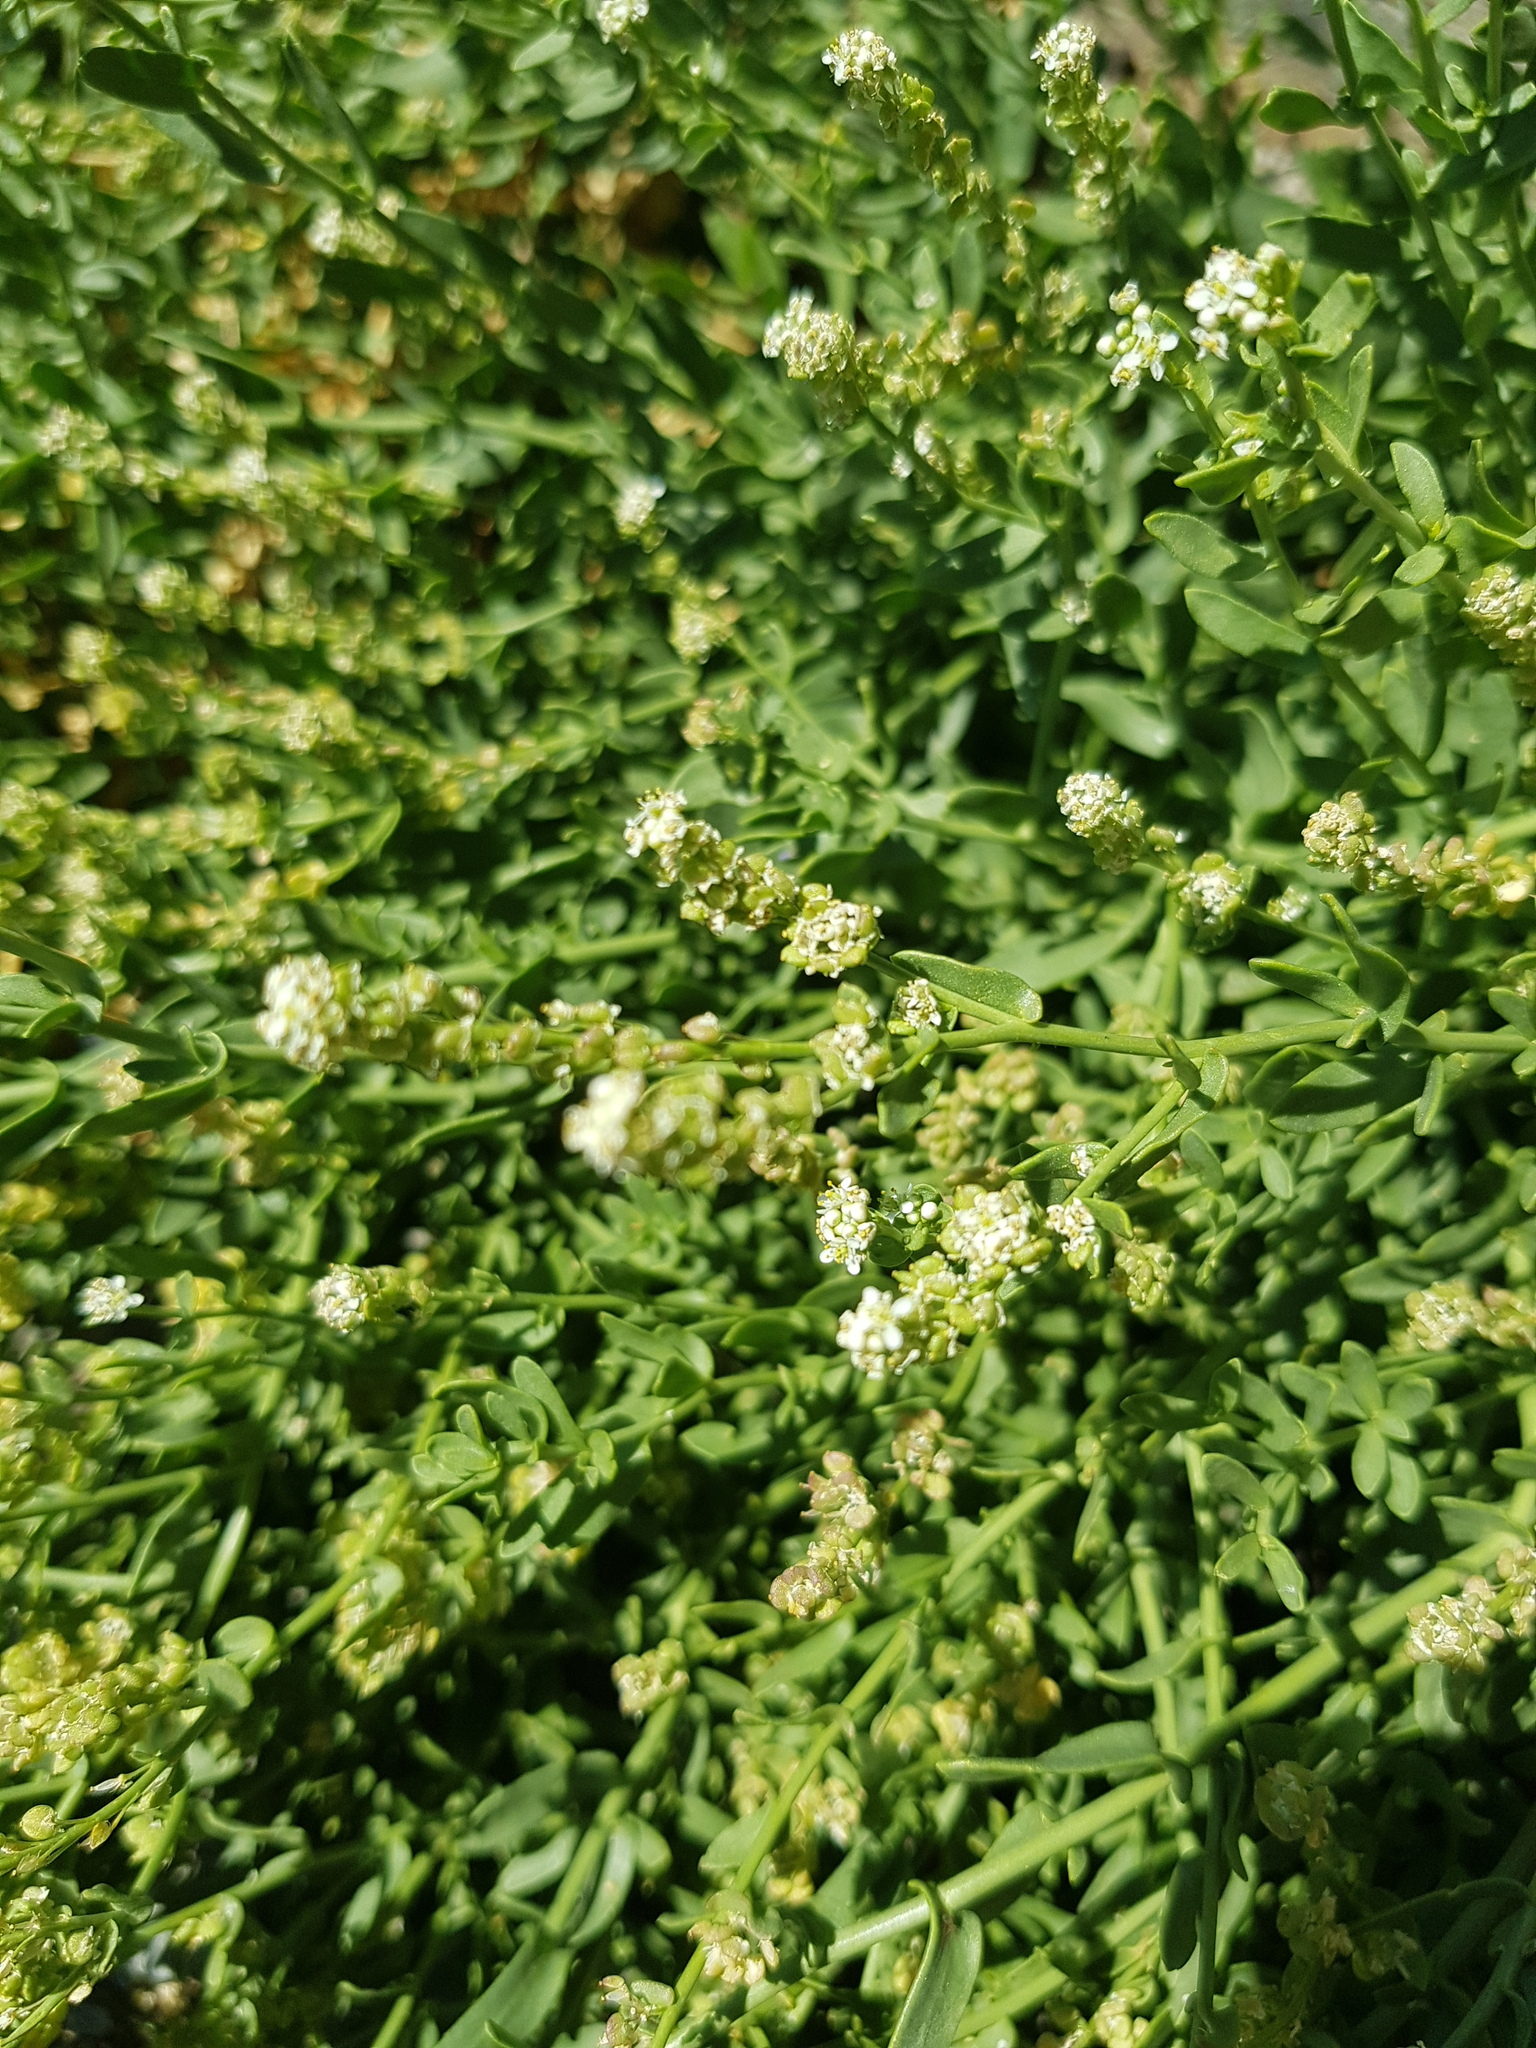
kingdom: Plantae
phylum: Tracheophyta
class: Magnoliopsida
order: Brassicales
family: Brassicaceae
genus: Lepidium
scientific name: Lepidium latifolium
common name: Dittander
